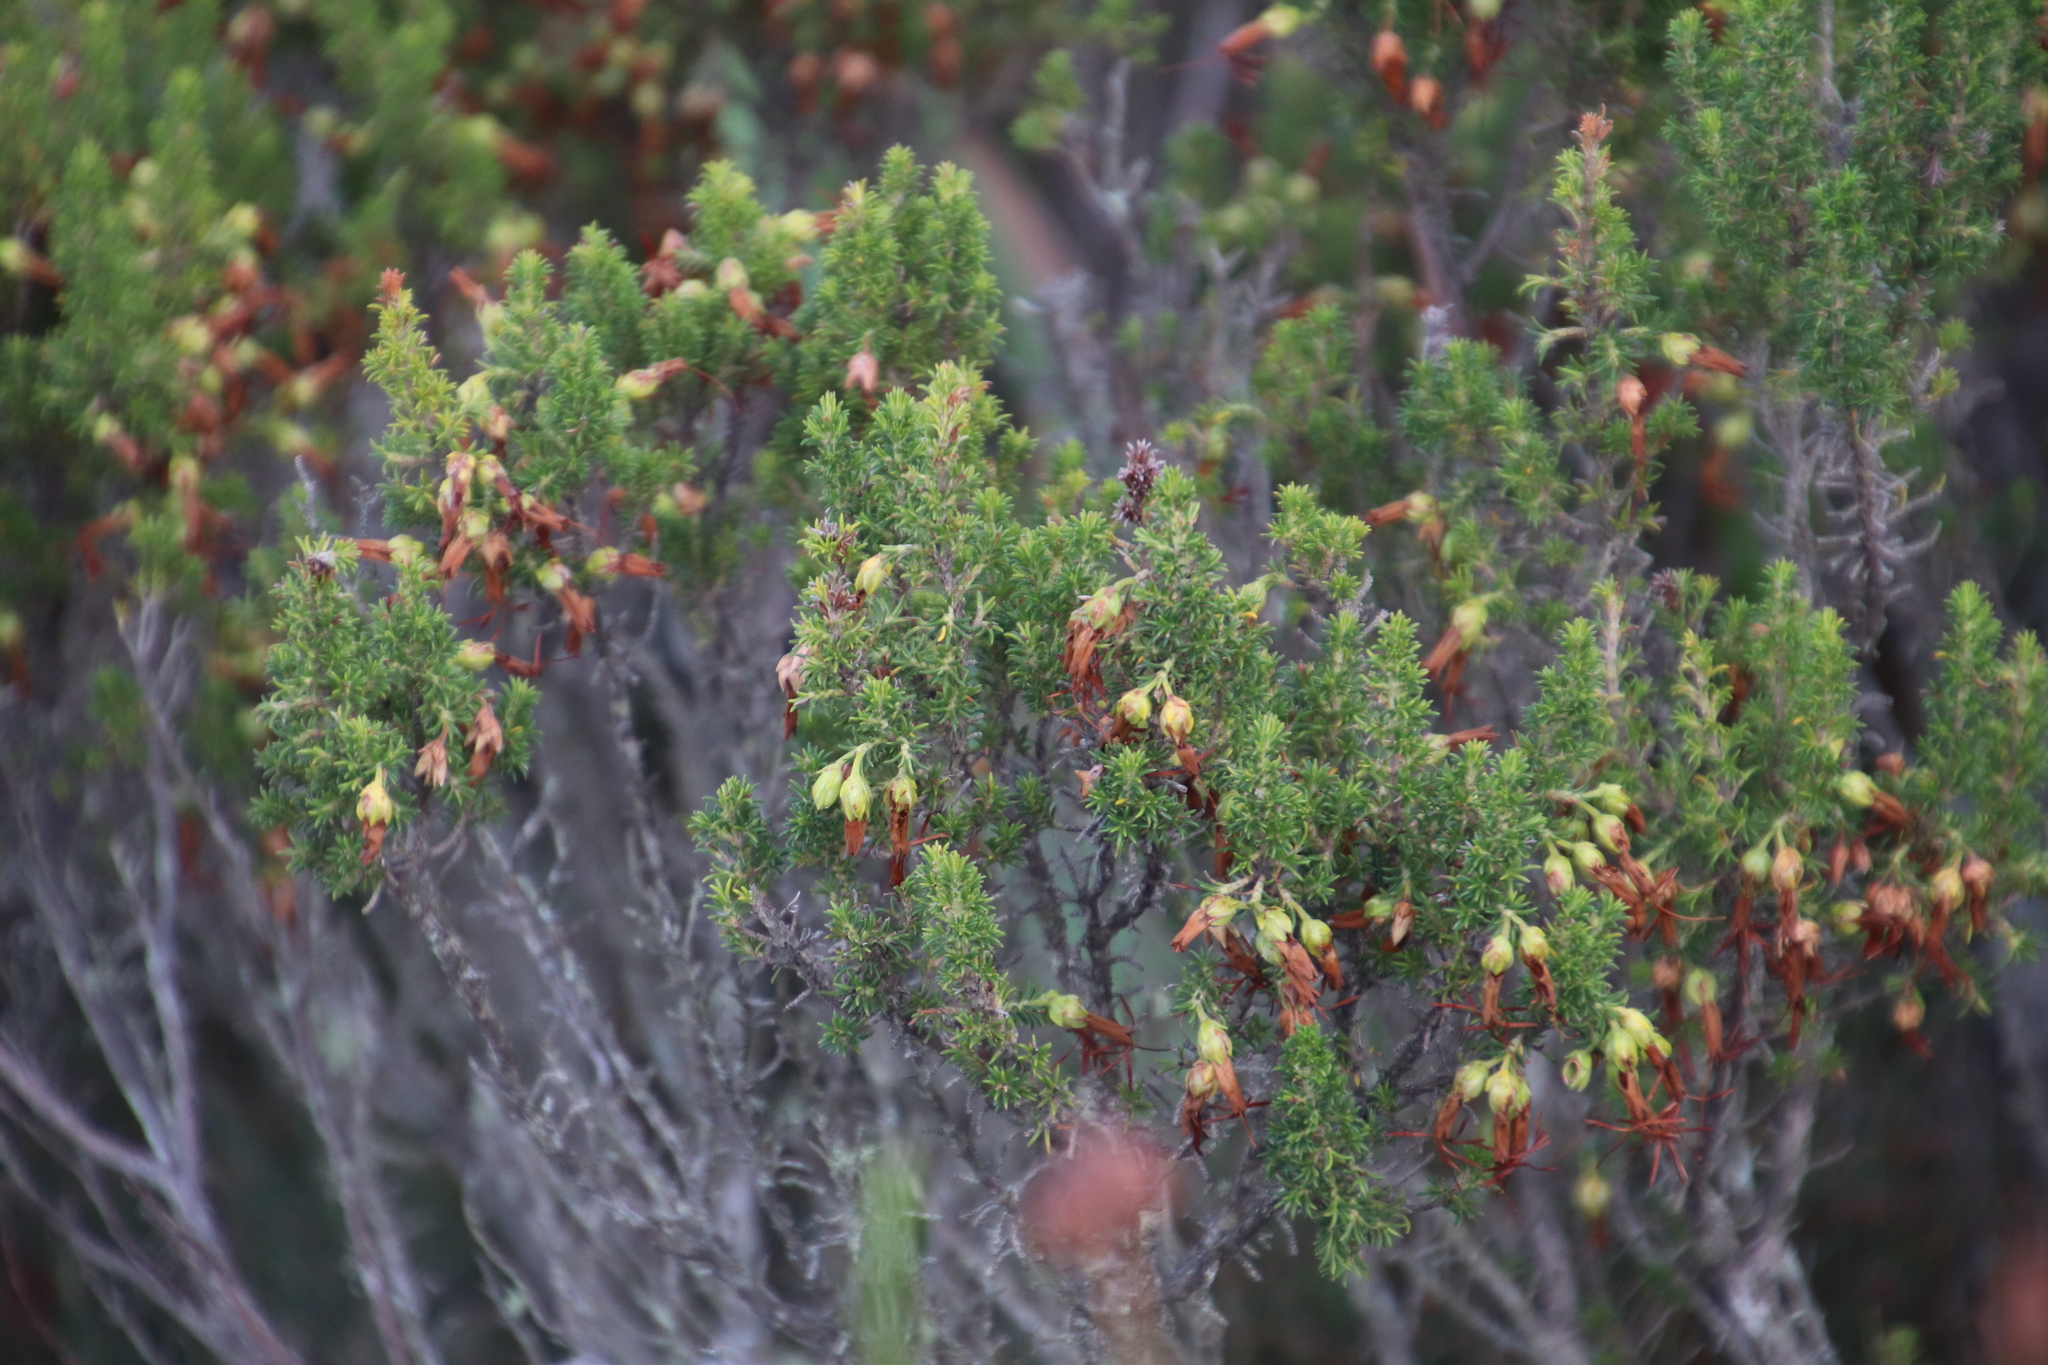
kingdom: Plantae
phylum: Tracheophyta
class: Magnoliopsida
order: Ericales
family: Ericaceae
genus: Erica
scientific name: Erica coccinea
